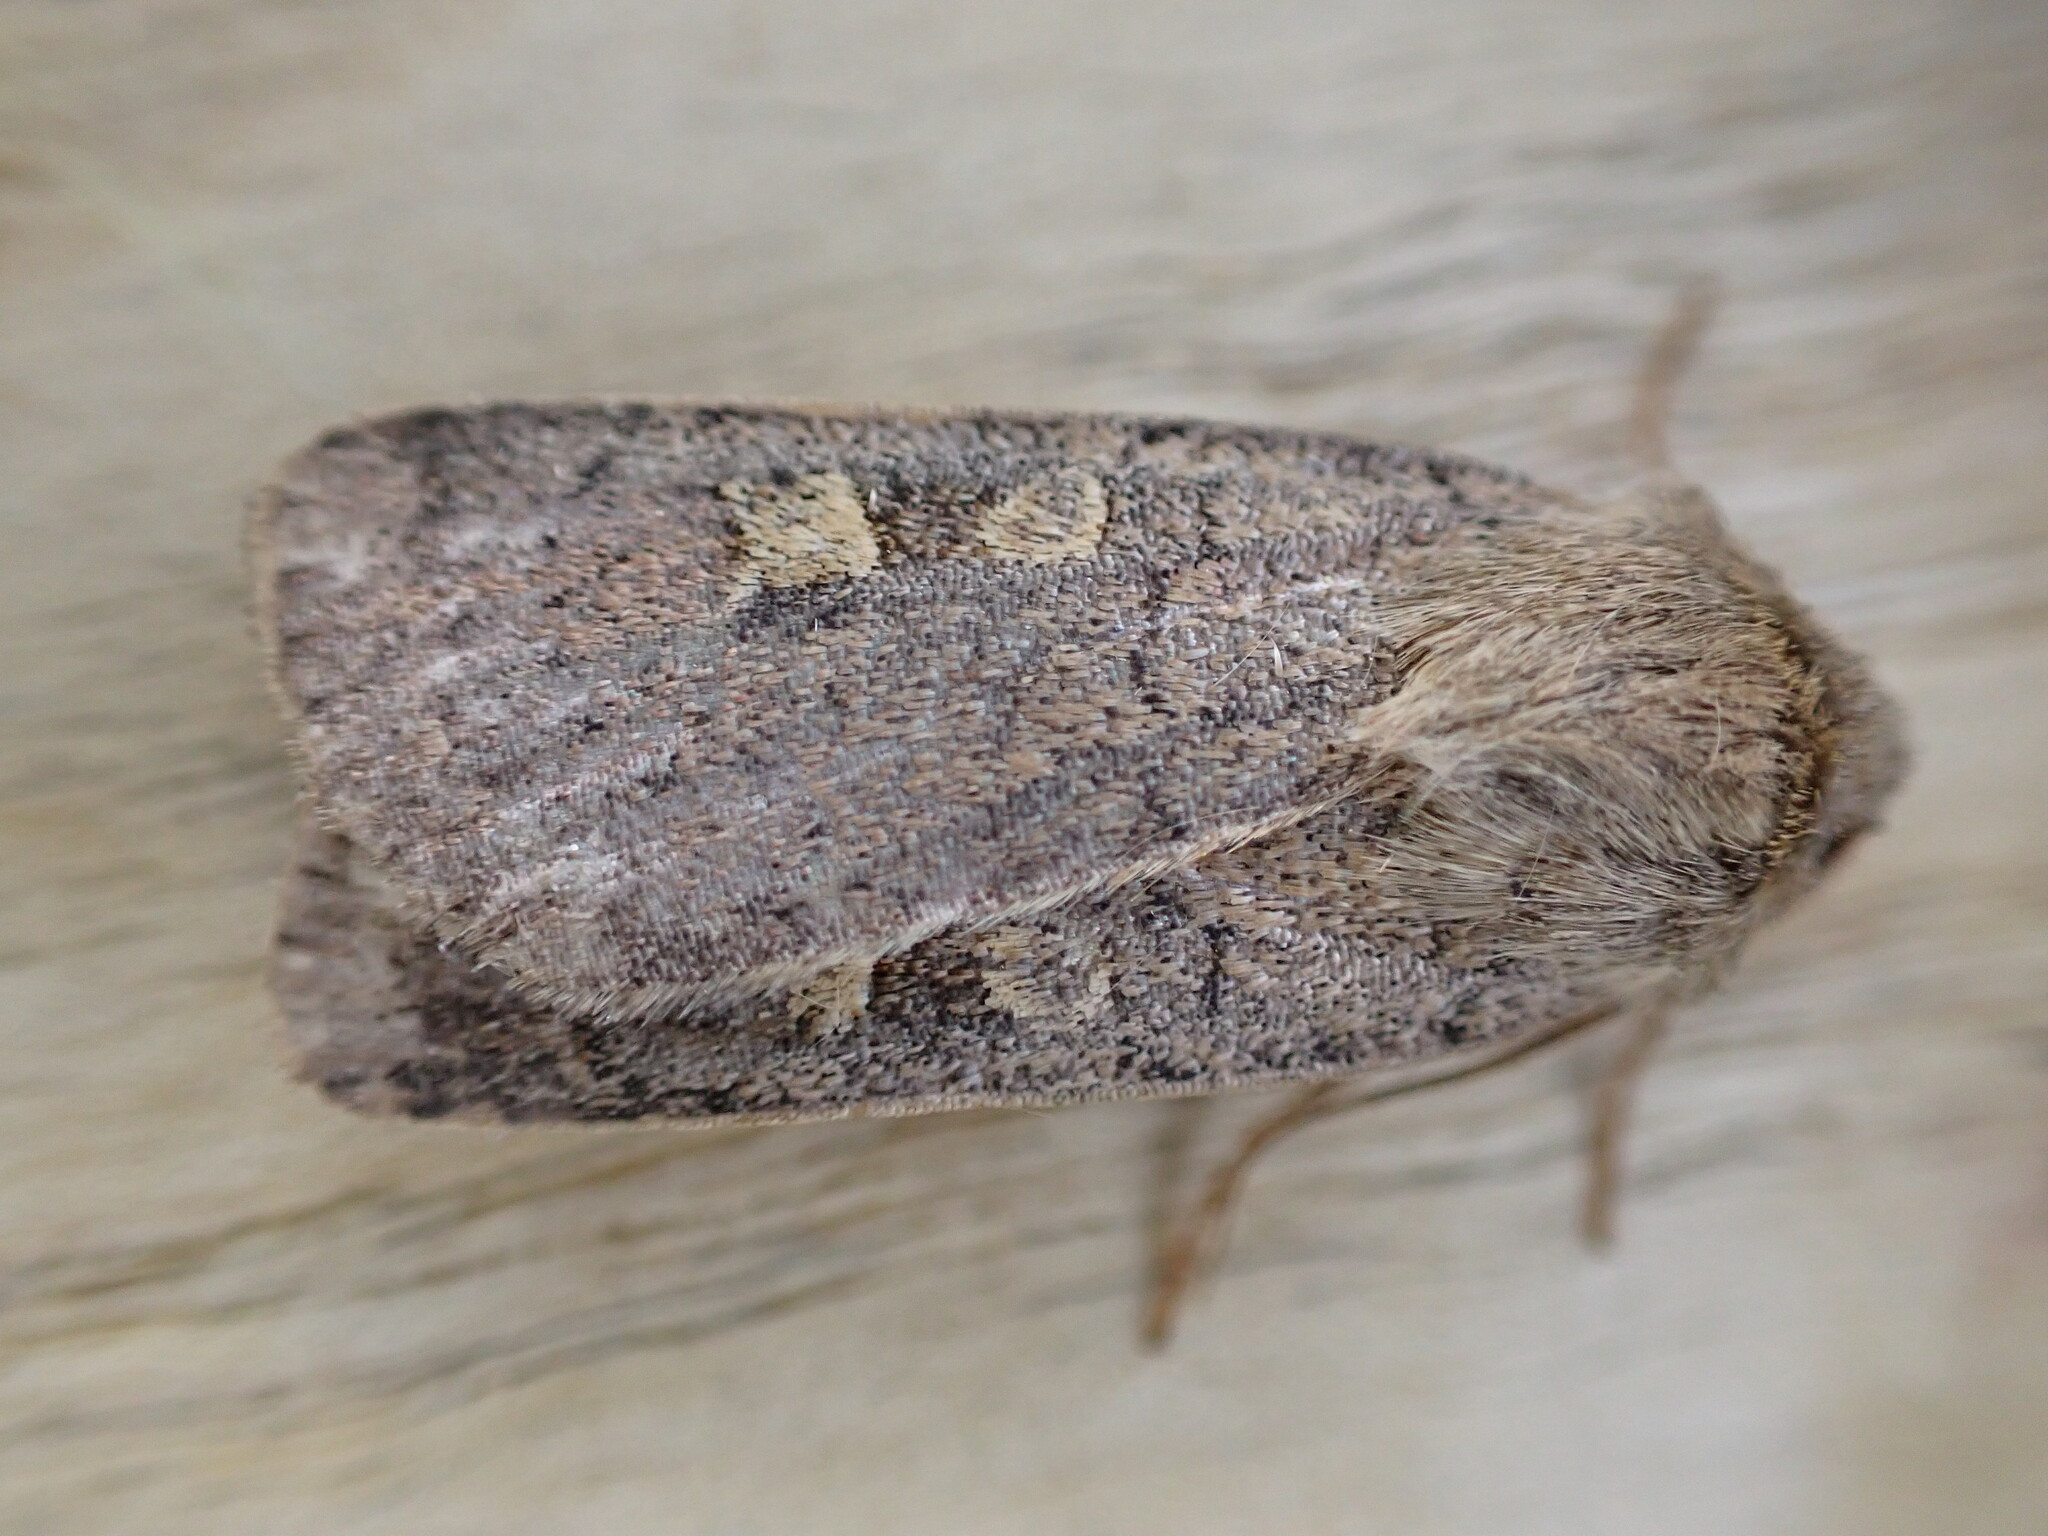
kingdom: Animalia
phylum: Arthropoda
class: Insecta
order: Lepidoptera
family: Noctuidae
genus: Xestia
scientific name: Xestia xanthographa
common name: Square-spot rustic
